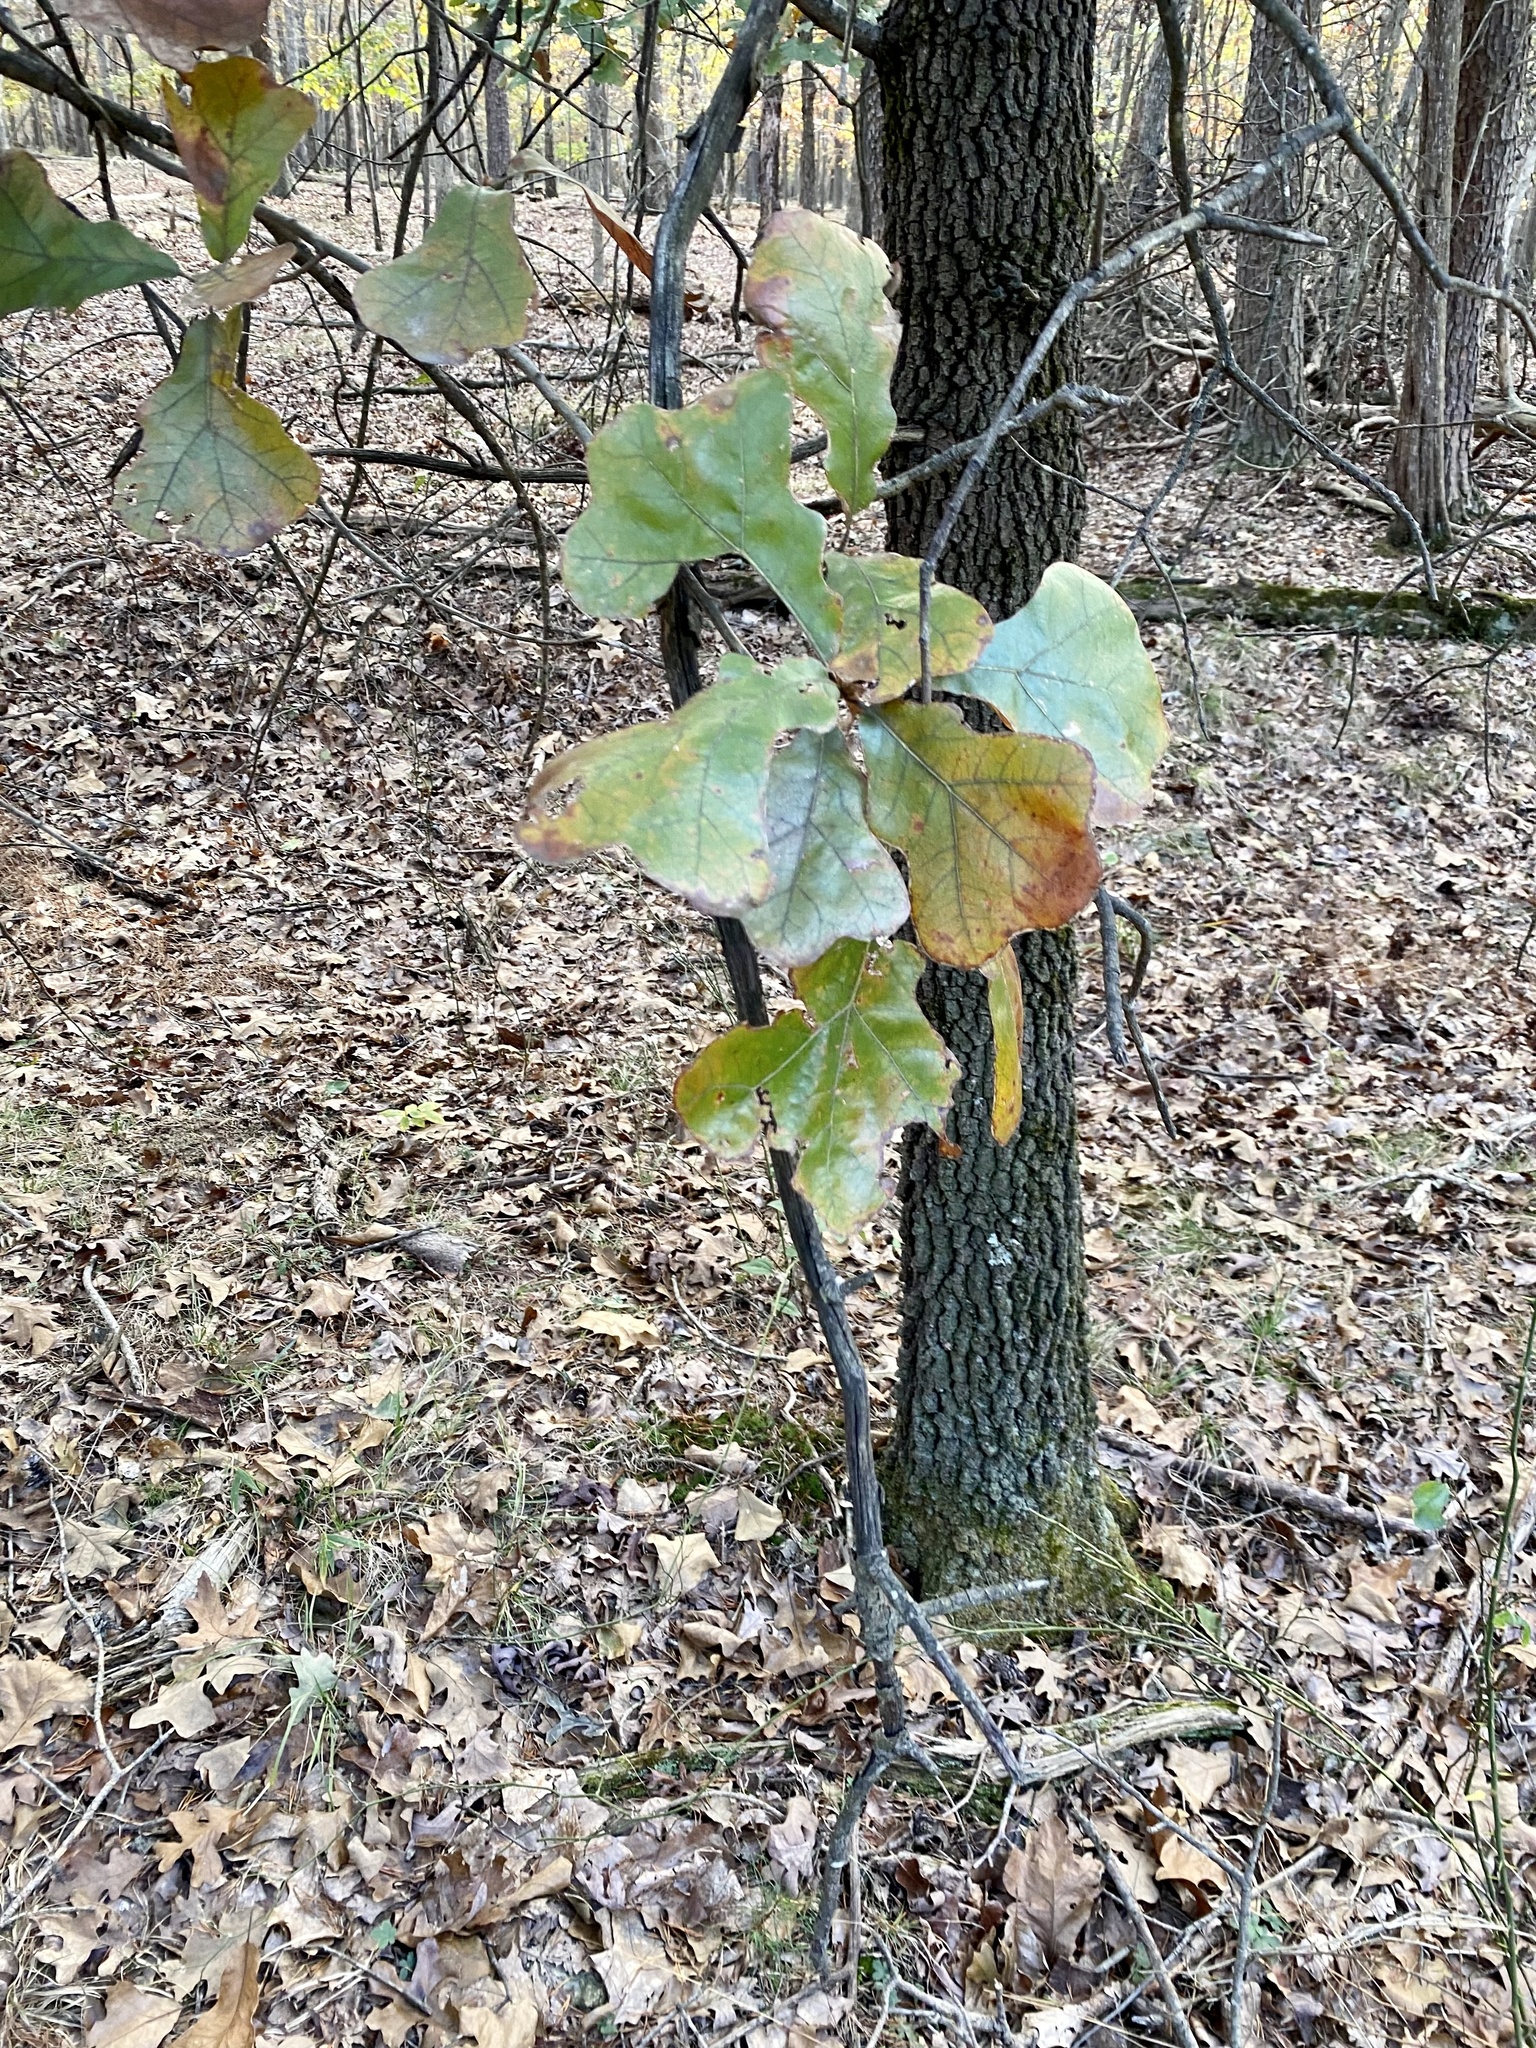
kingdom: Plantae
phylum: Tracheophyta
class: Magnoliopsida
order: Fagales
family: Fagaceae
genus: Quercus
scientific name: Quercus marilandica
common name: Blackjack oak
